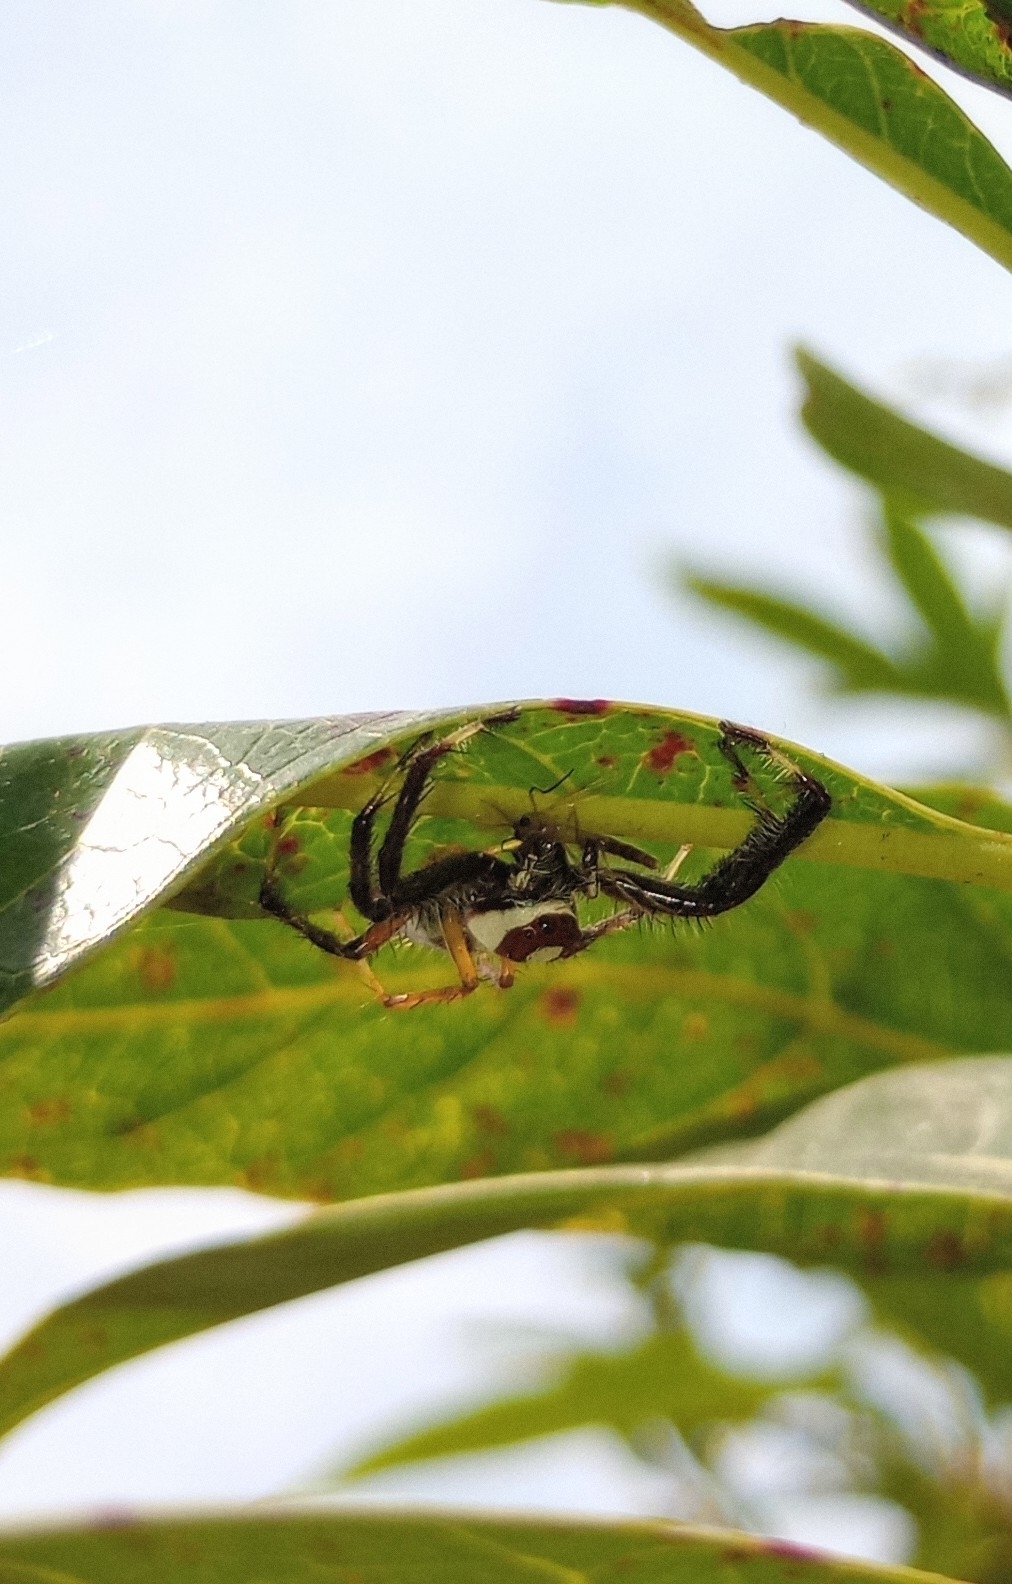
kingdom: Animalia
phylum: Arthropoda
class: Arachnida
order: Araneae
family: Salticidae
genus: Telamonia
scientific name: Telamonia dimidiata
